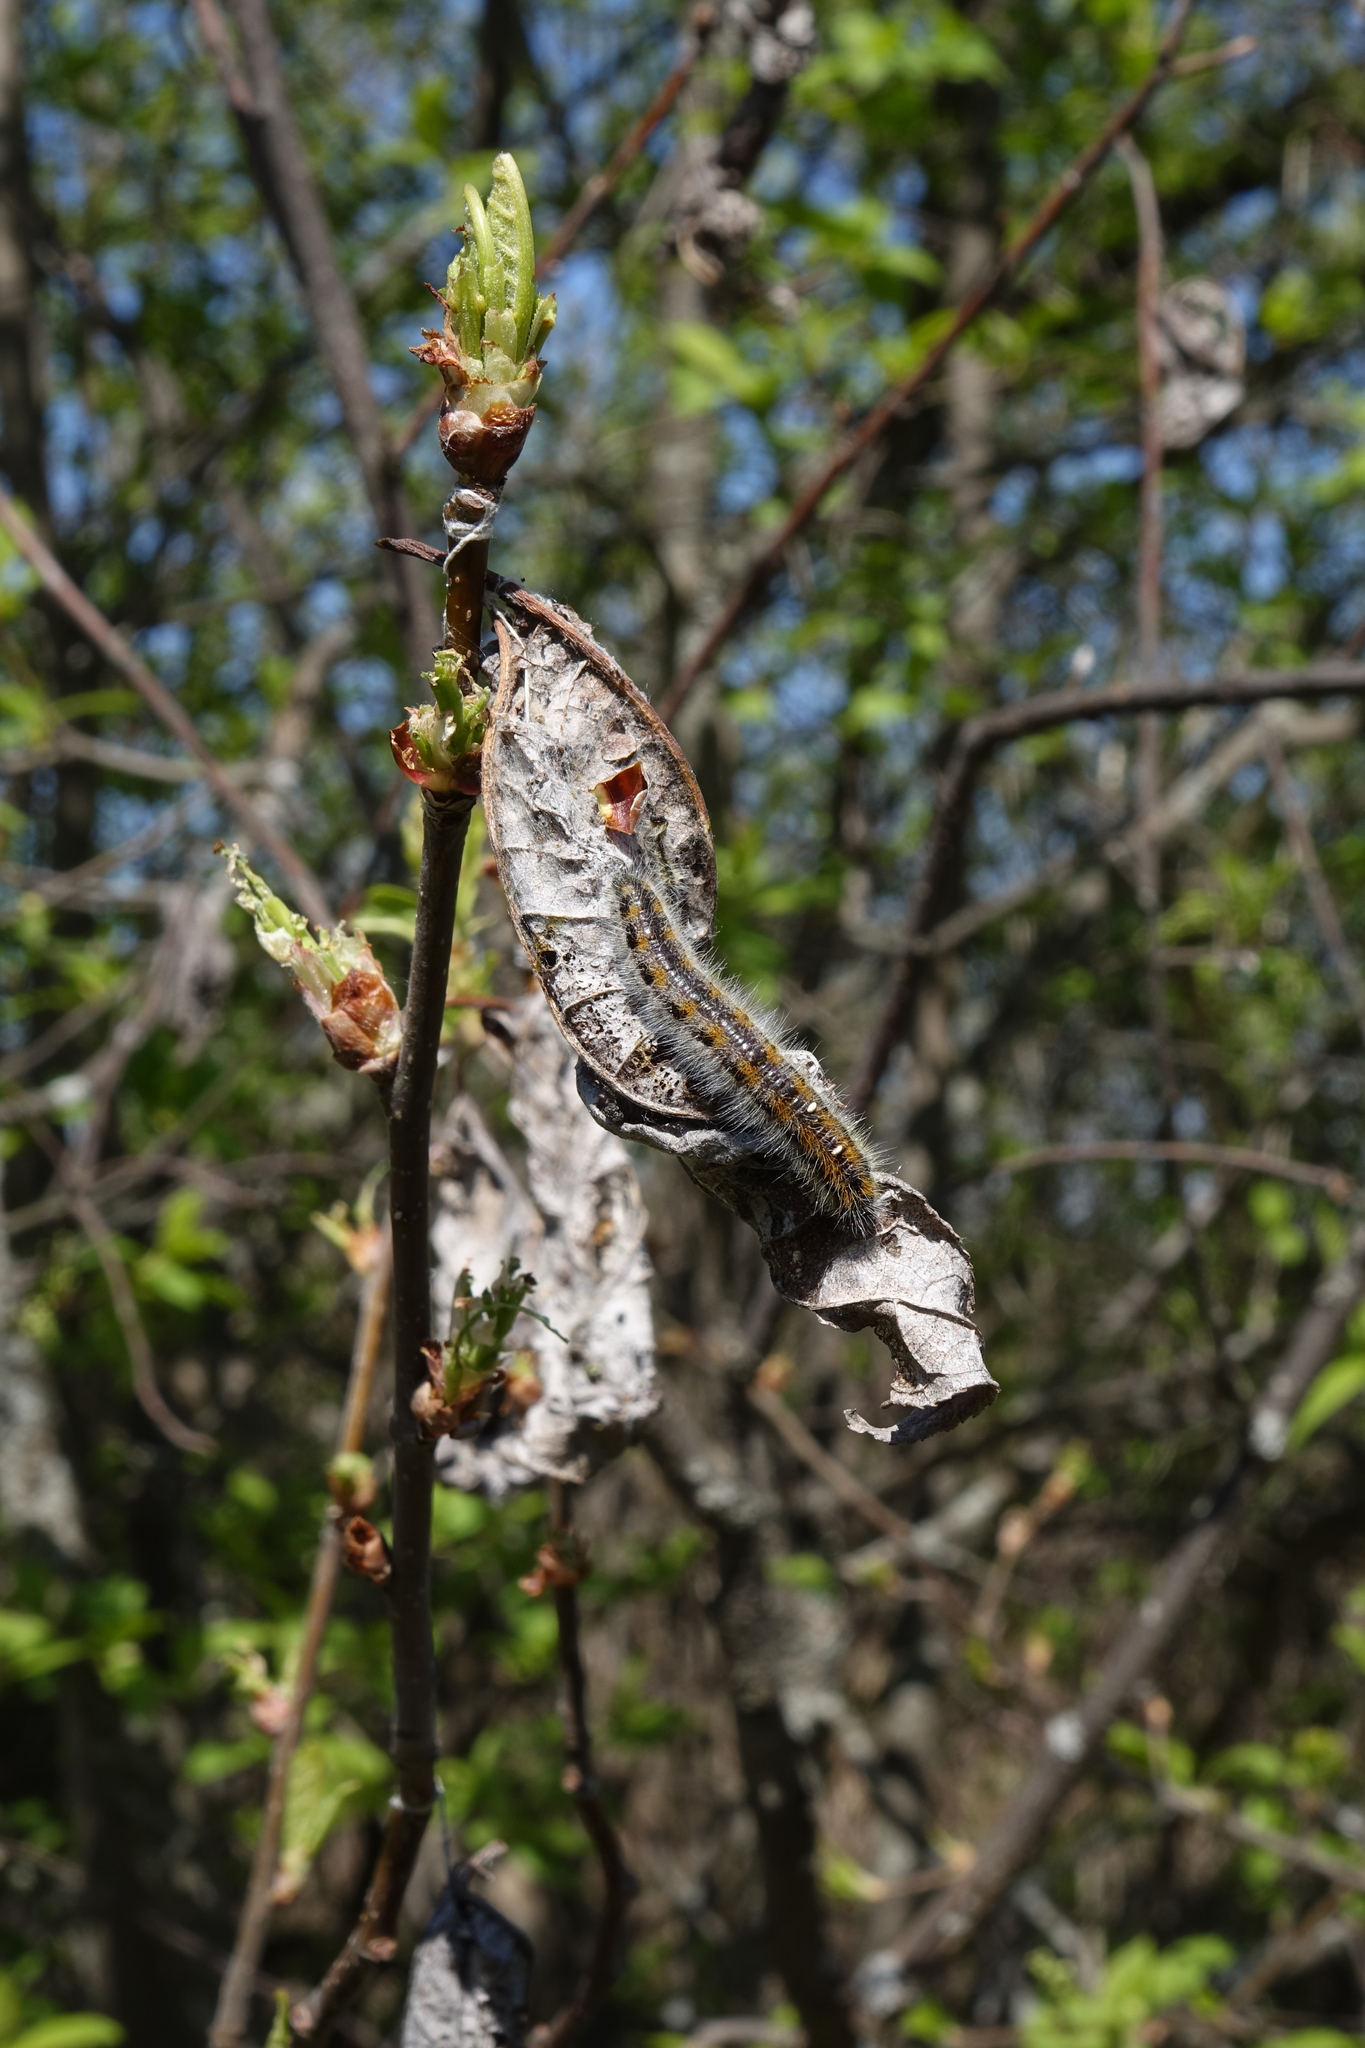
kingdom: Animalia
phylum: Arthropoda
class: Insecta
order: Lepidoptera
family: Pieridae
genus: Aporia
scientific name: Aporia crataegi
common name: Black-veined white
